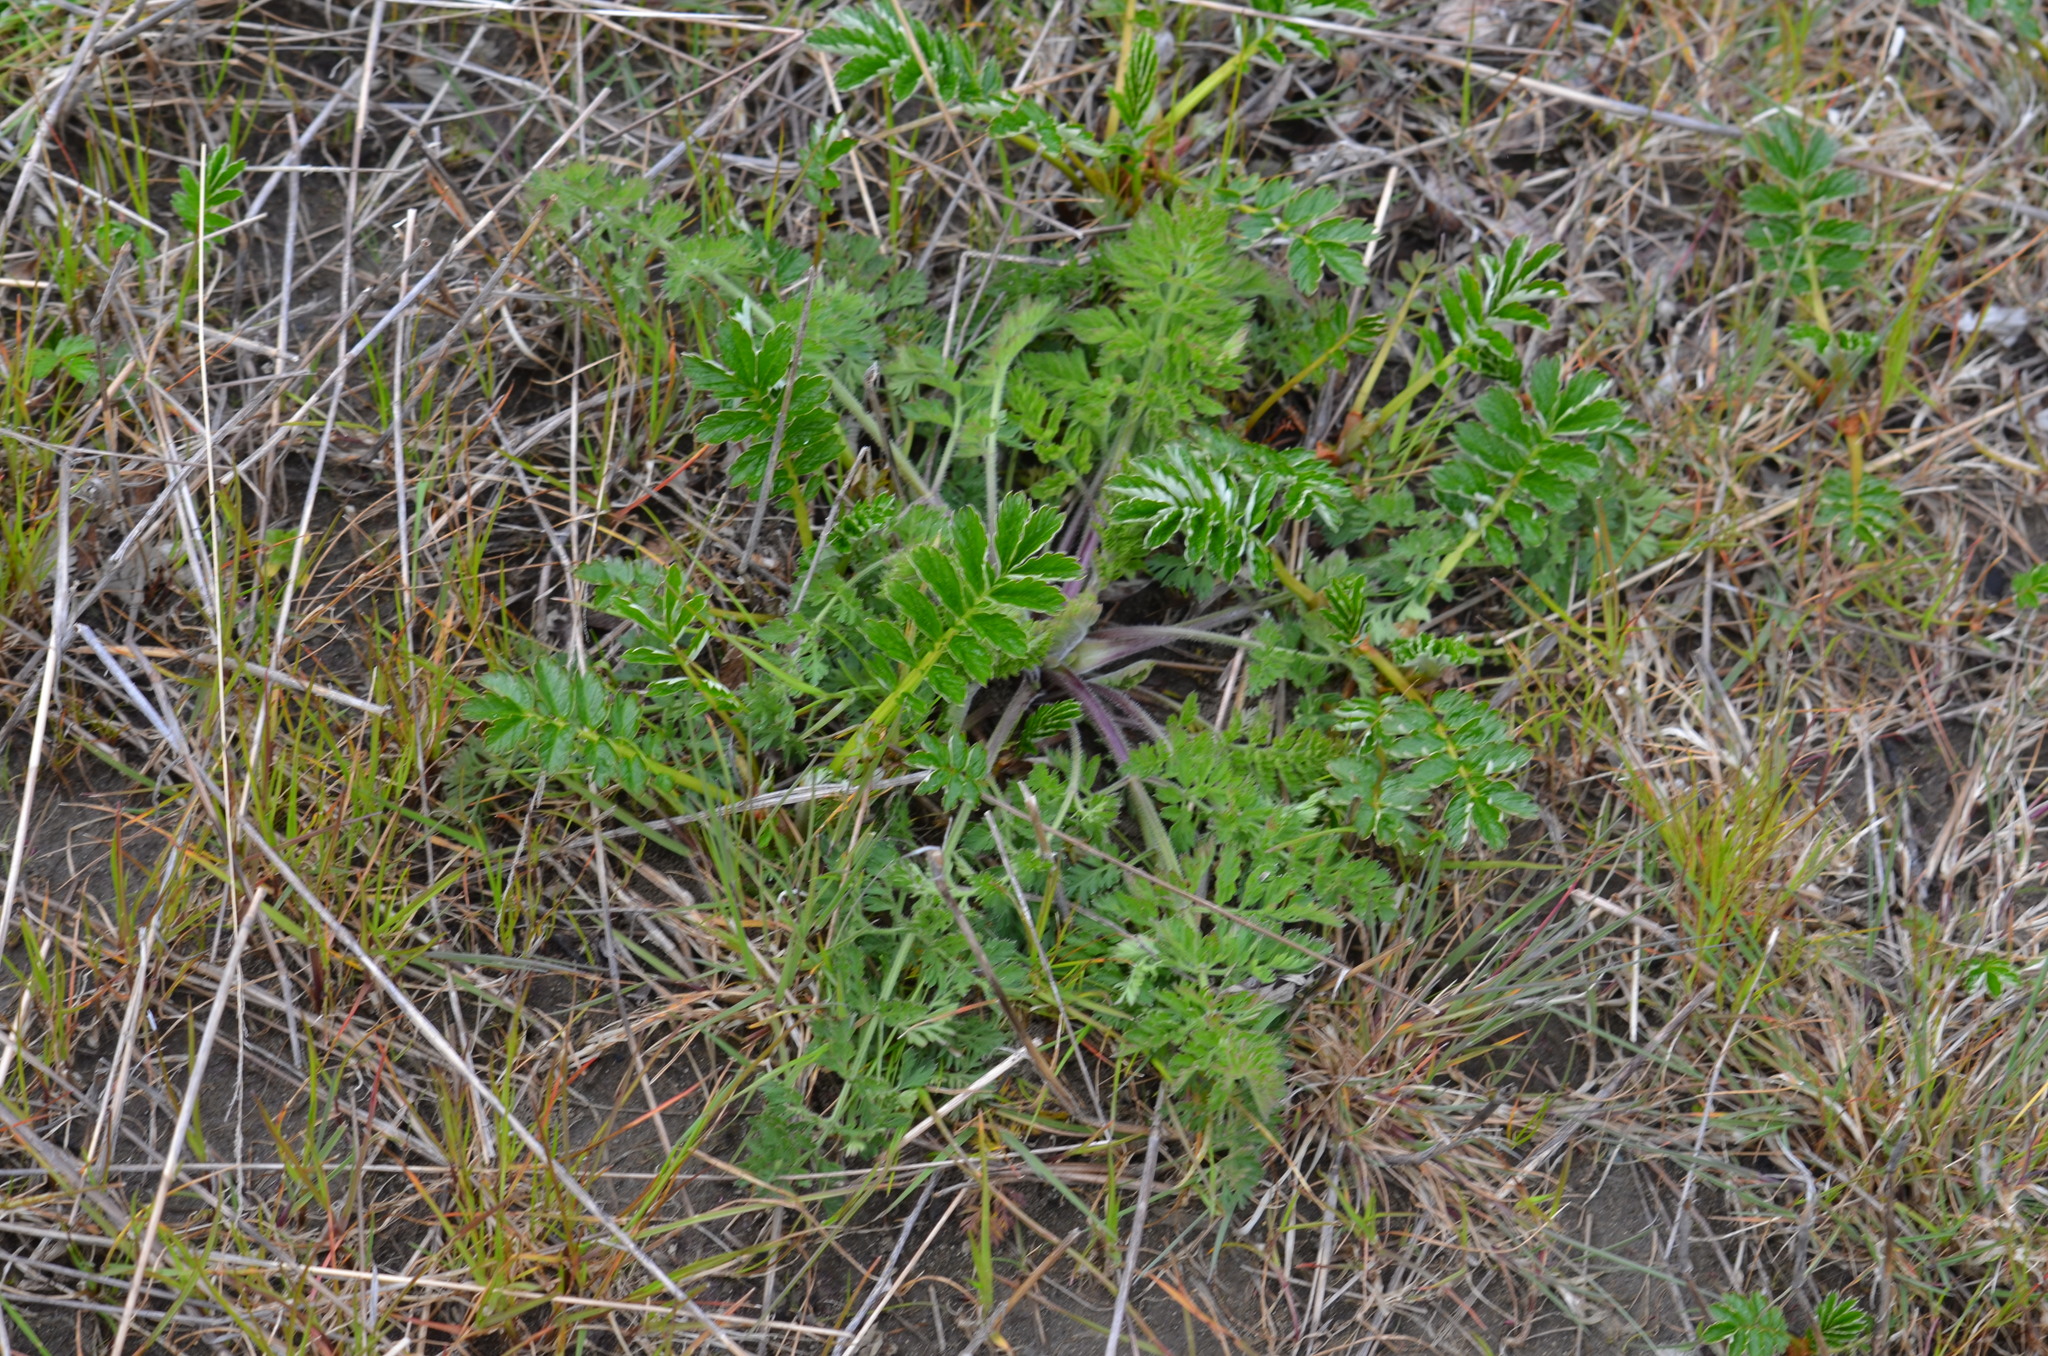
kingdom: Plantae
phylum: Tracheophyta
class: Magnoliopsida
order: Rosales
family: Rosaceae
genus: Argentina
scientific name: Argentina anserina
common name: Common silverweed
